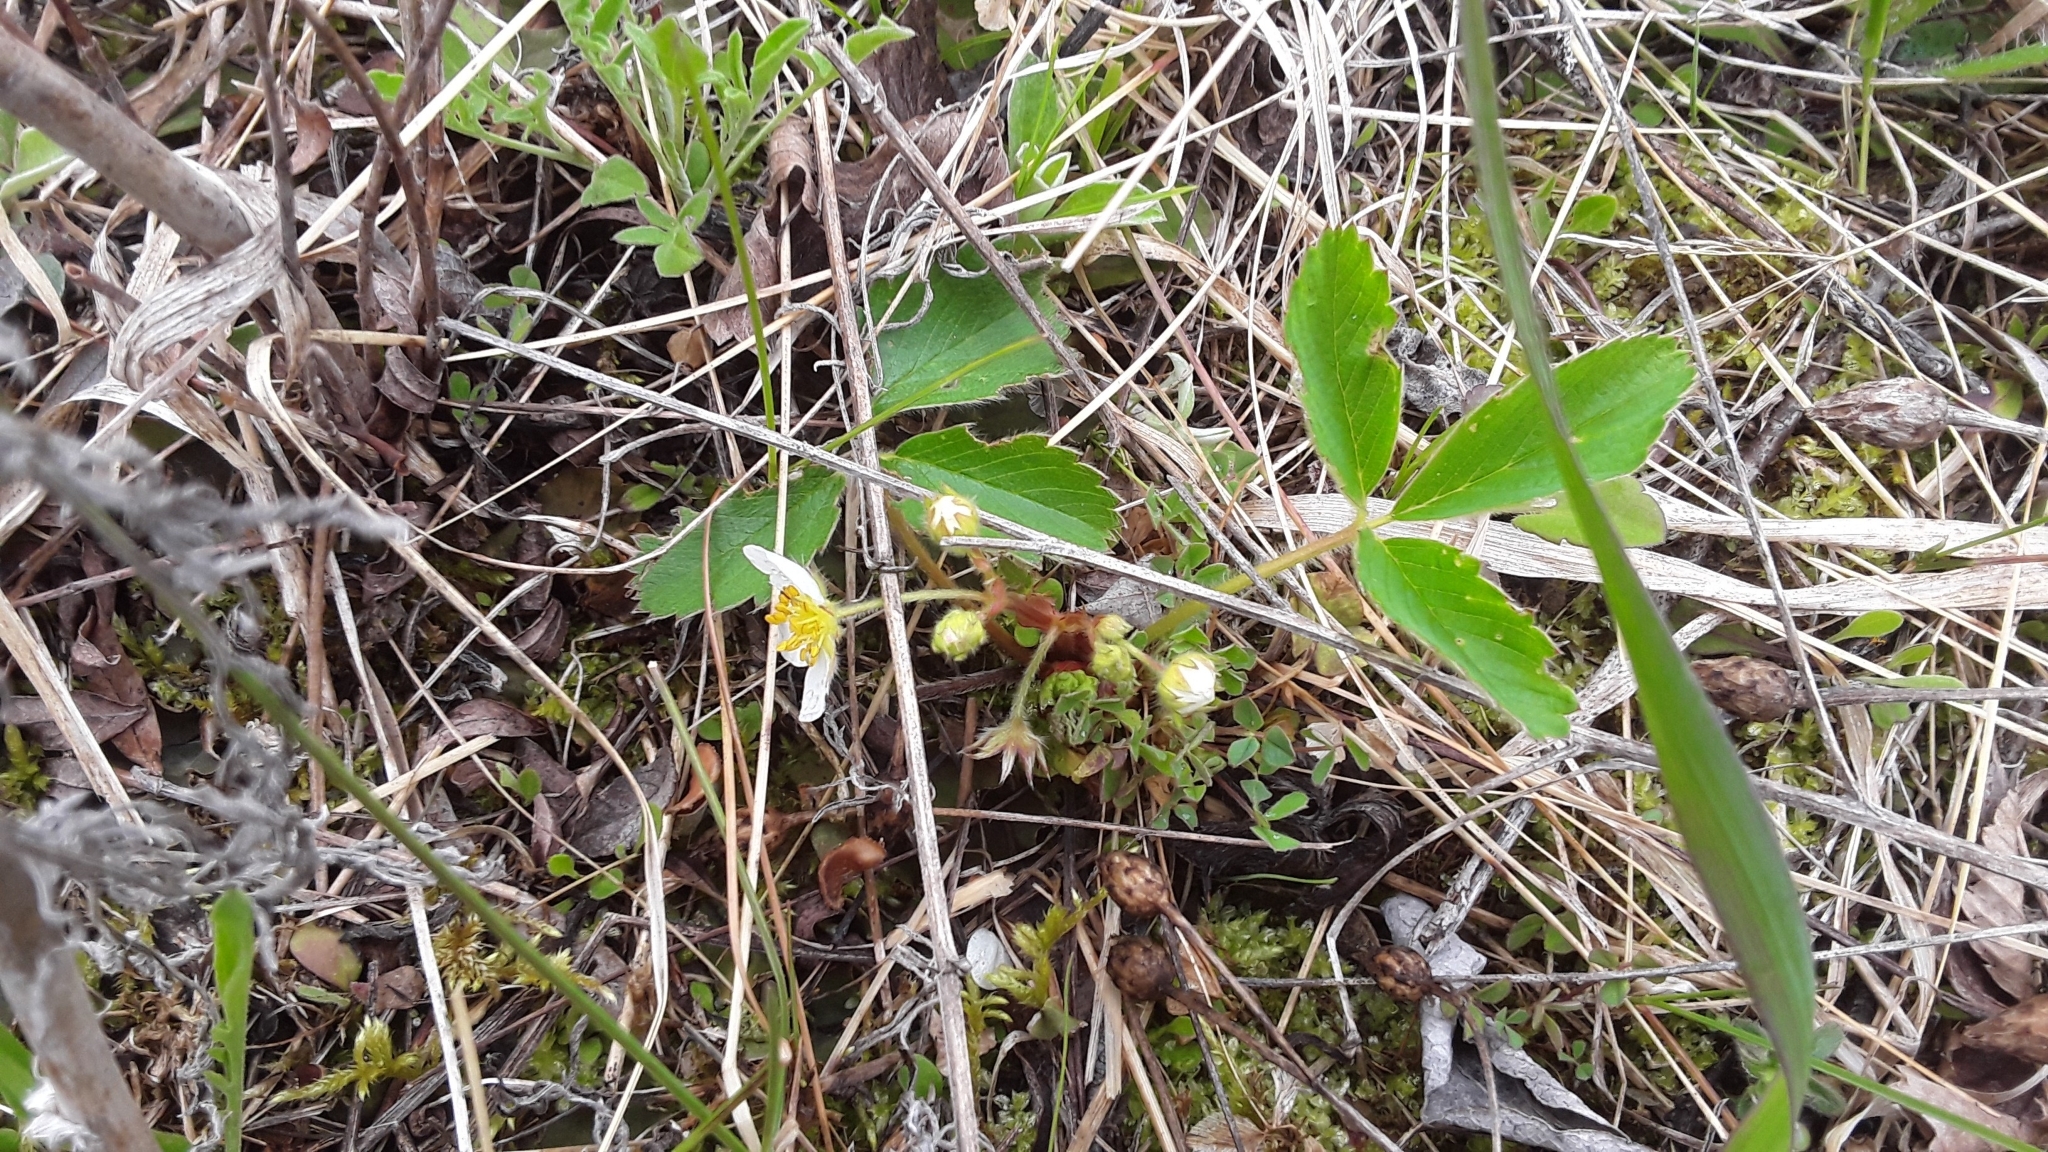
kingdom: Plantae
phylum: Tracheophyta
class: Magnoliopsida
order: Rosales
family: Rosaceae
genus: Fragaria
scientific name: Fragaria virginiana
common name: Thickleaved wild strawberry
